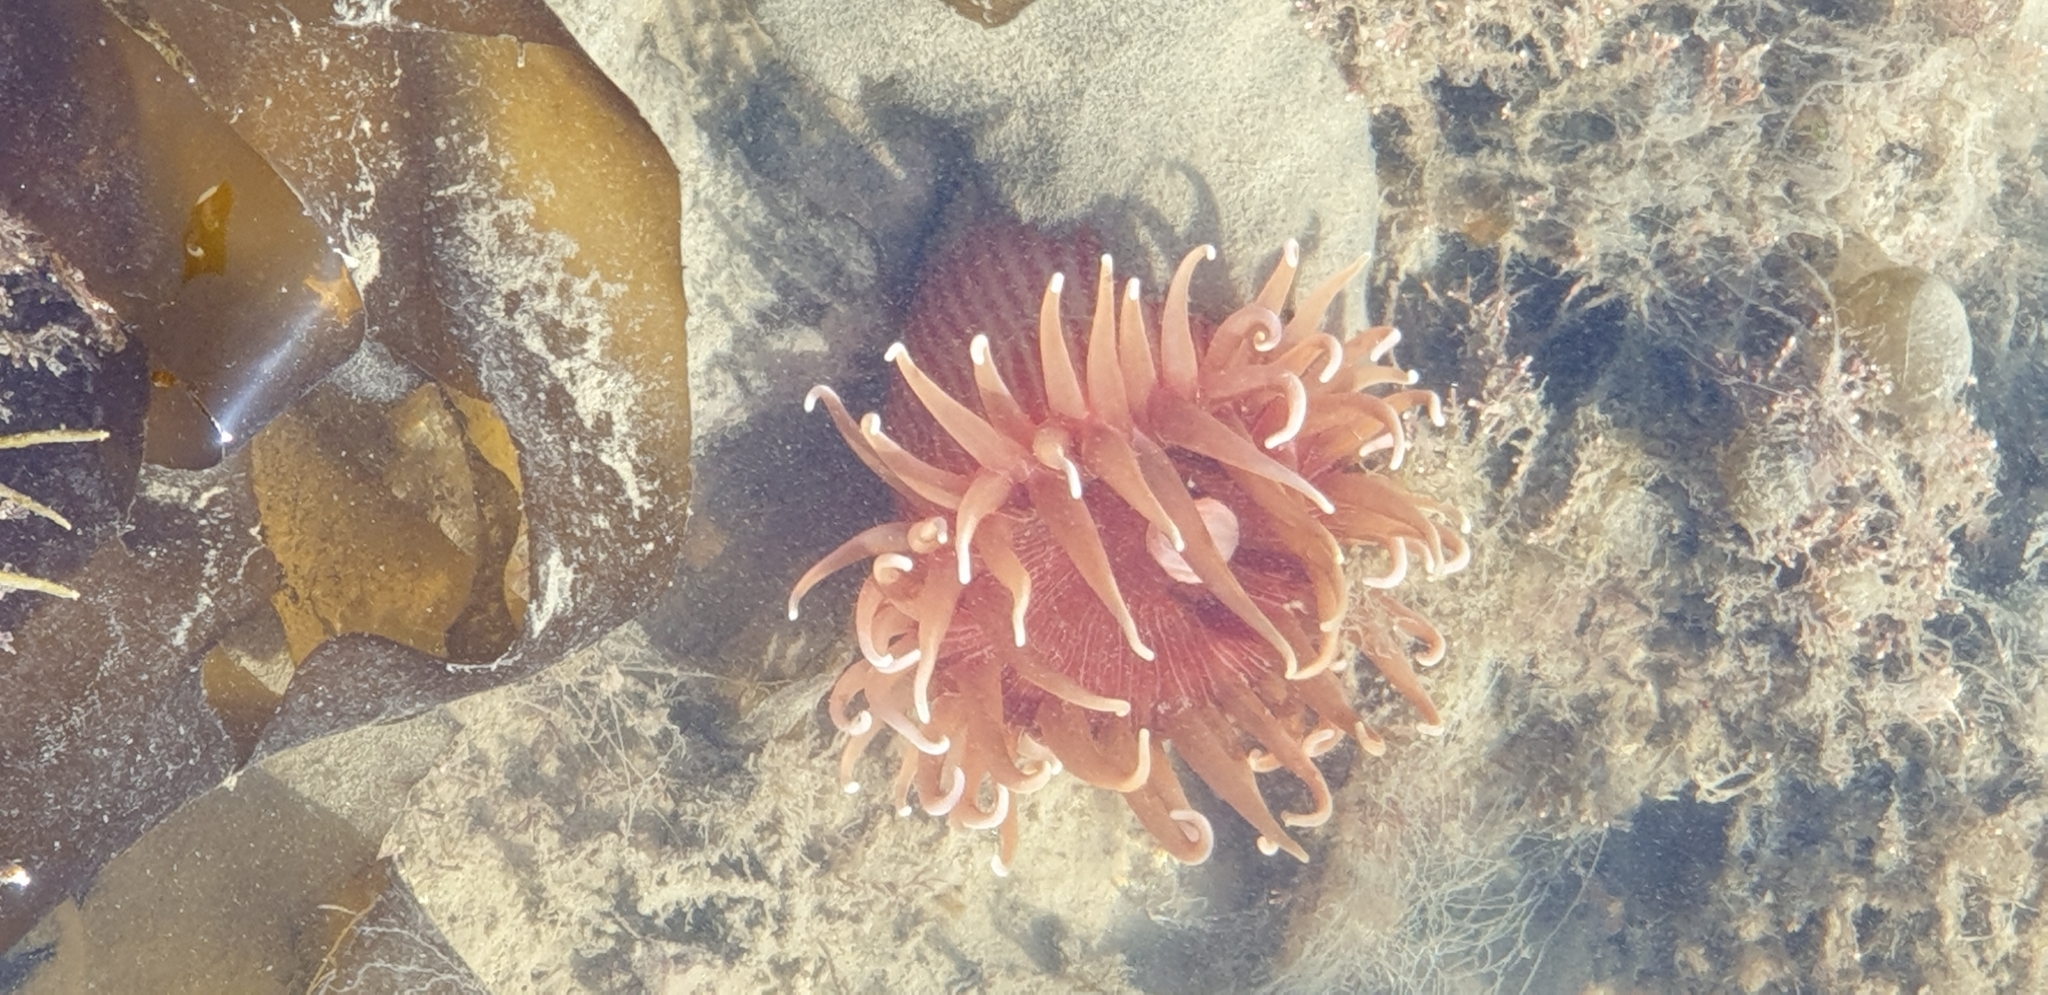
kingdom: Animalia
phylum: Cnidaria
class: Anthozoa
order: Actiniaria
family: Actiniidae
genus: Epiactis
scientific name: Epiactis thompsoni
